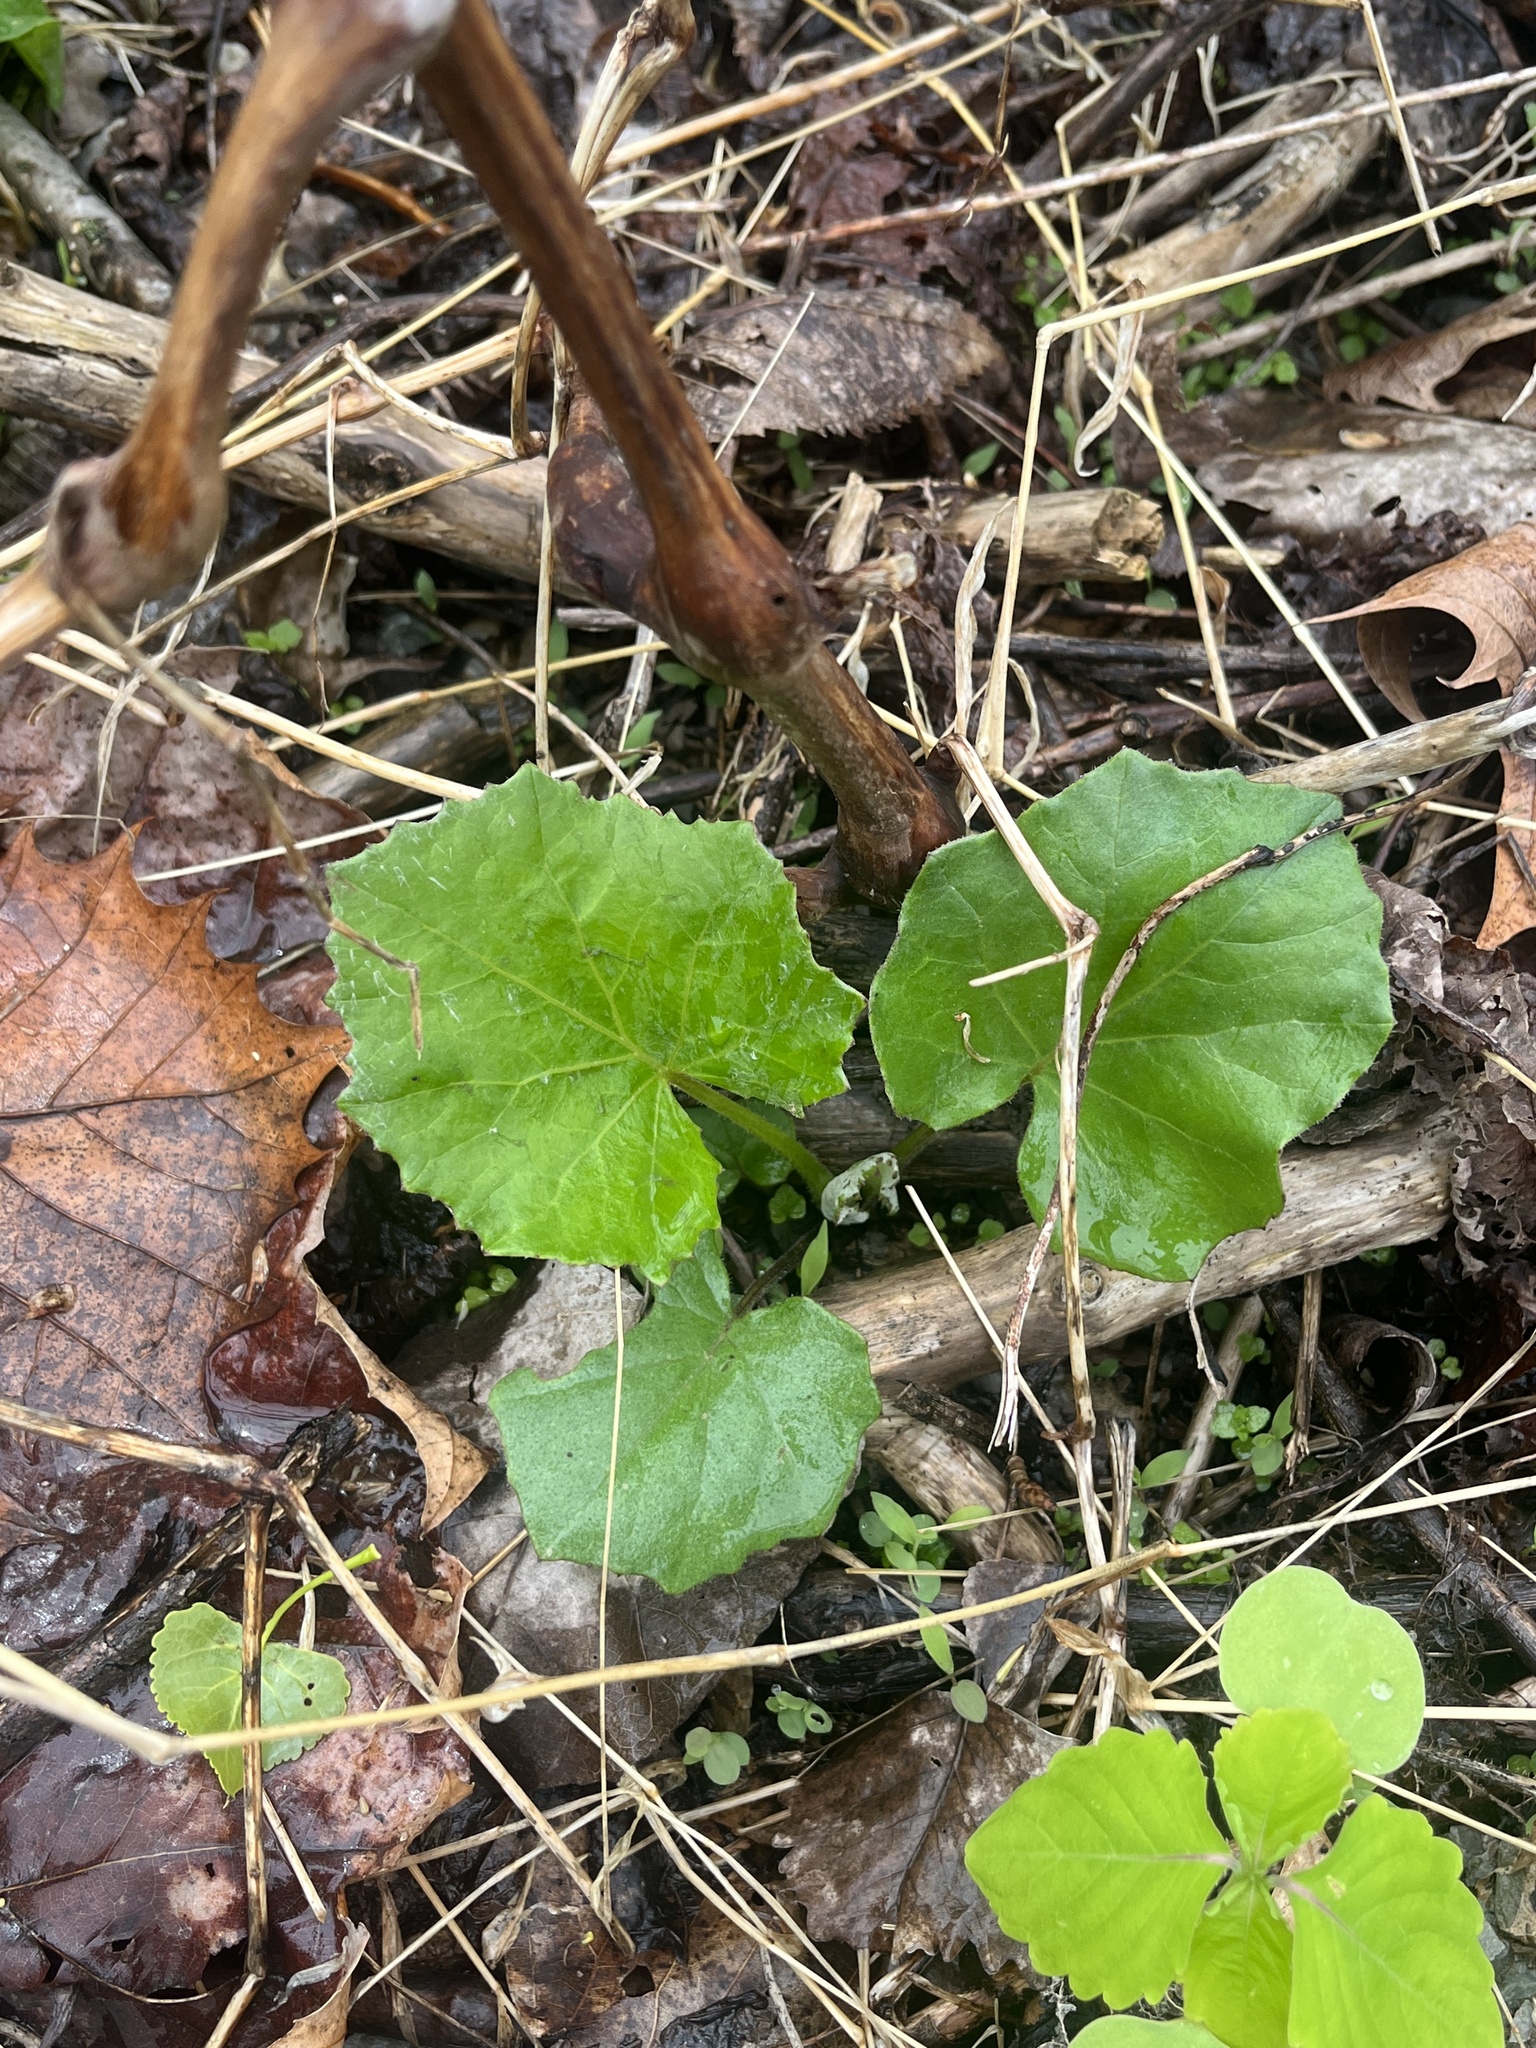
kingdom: Plantae
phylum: Tracheophyta
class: Magnoliopsida
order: Asterales
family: Asteraceae
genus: Tussilago
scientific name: Tussilago farfara
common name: Coltsfoot
